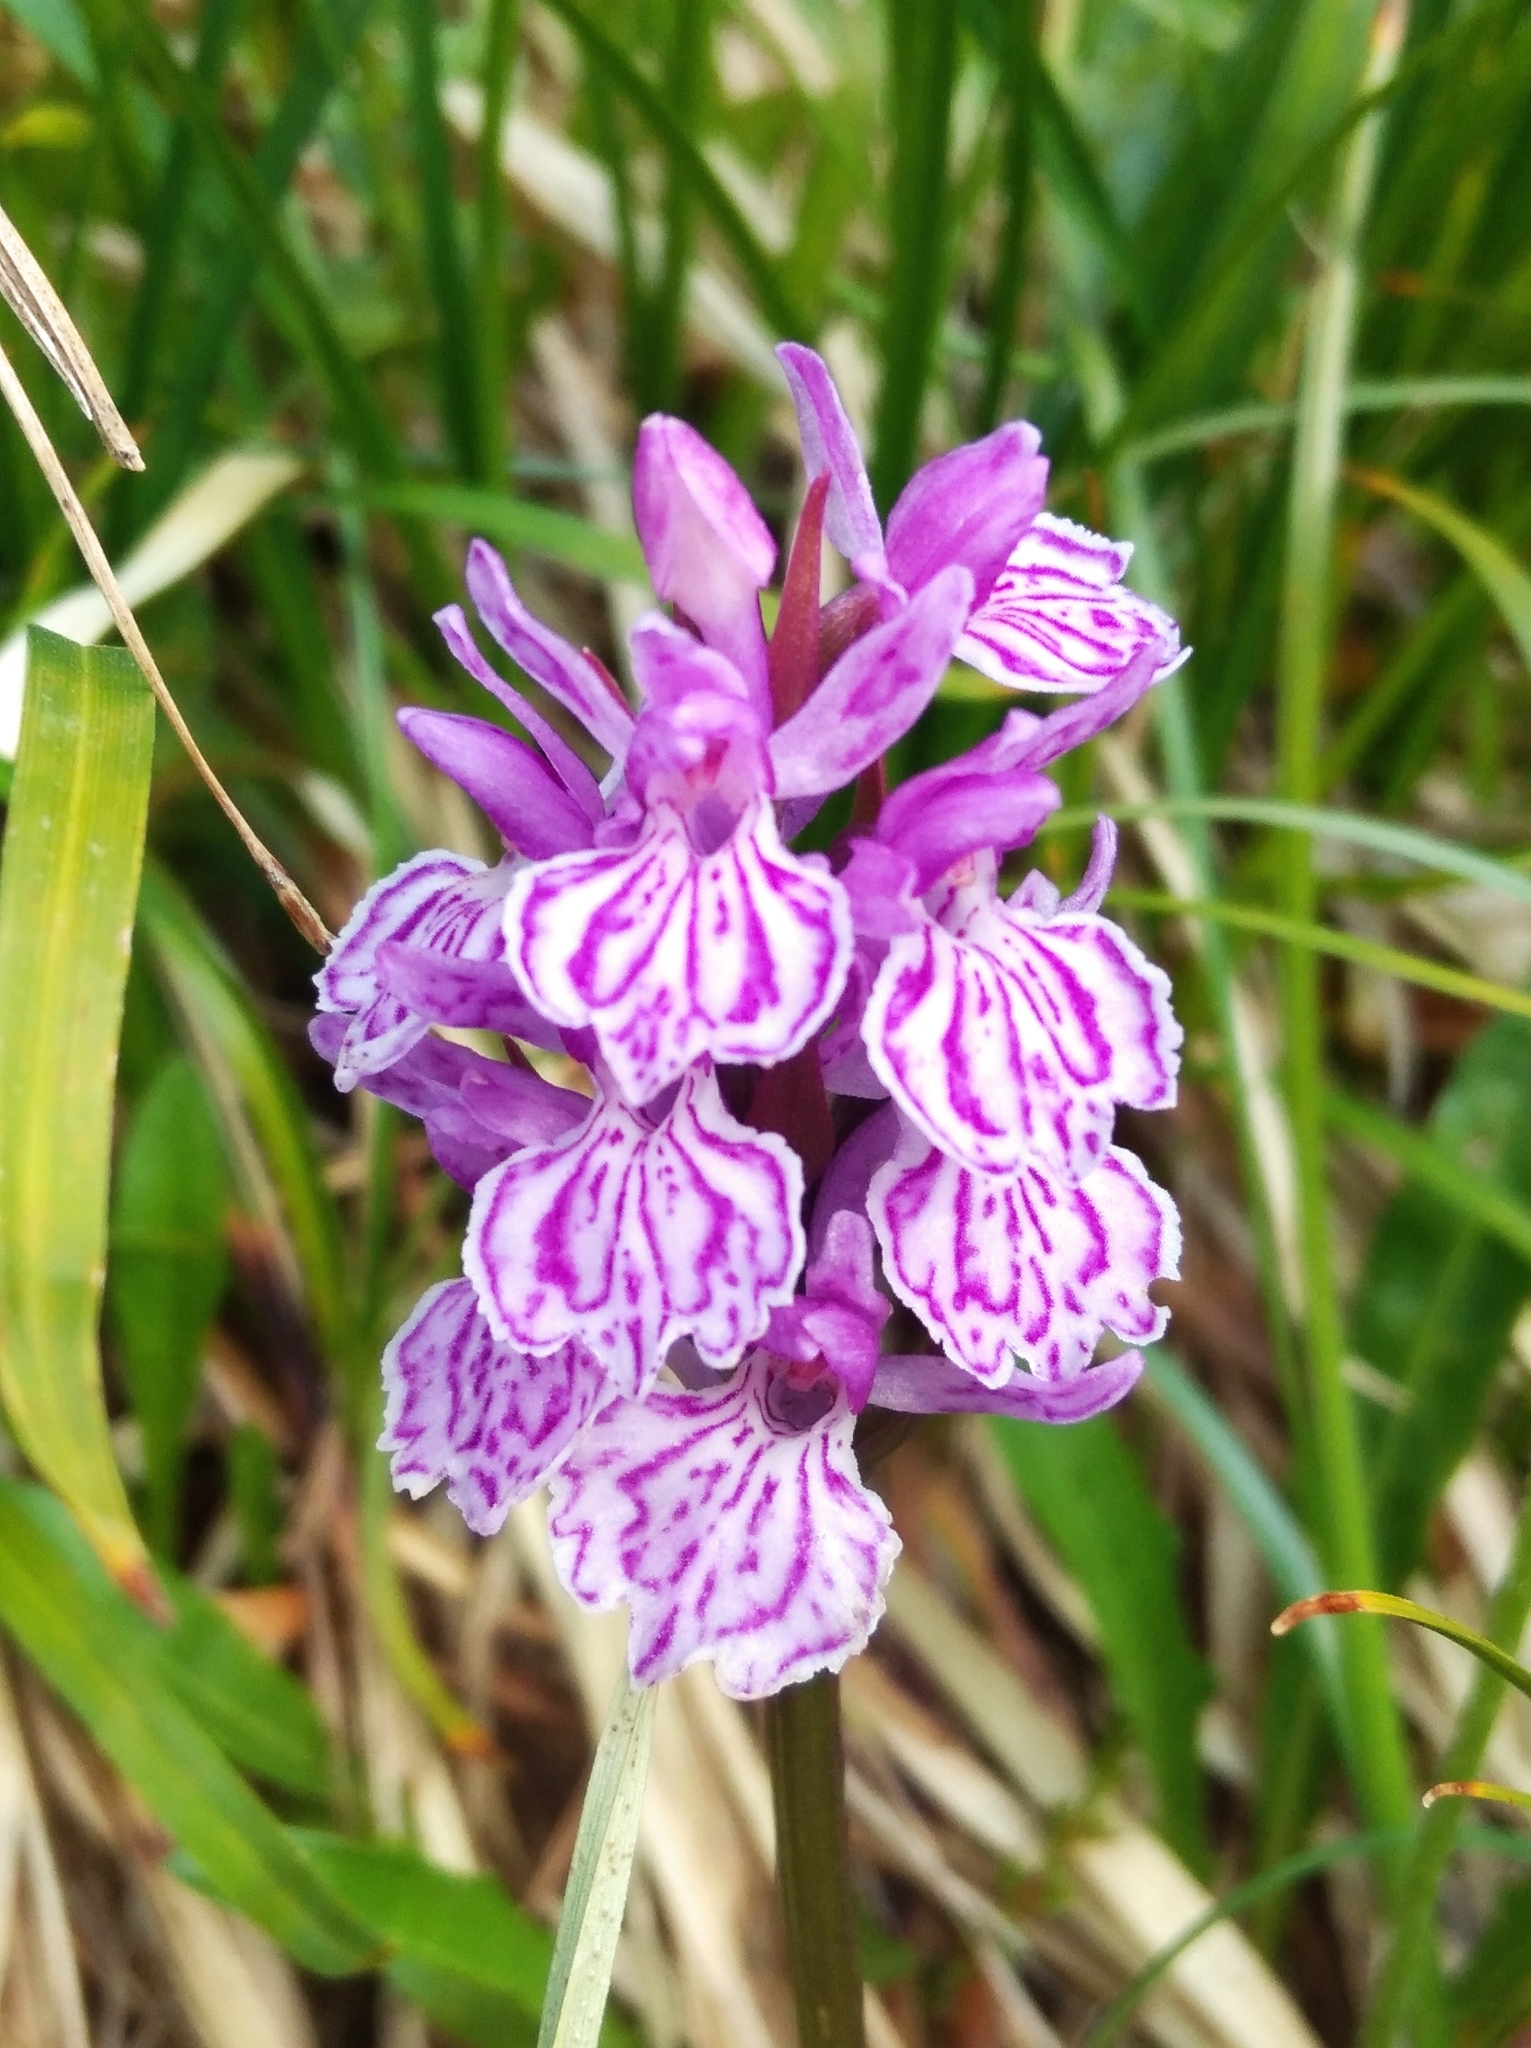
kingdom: Plantae
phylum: Tracheophyta
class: Liliopsida
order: Asparagales
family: Orchidaceae
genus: Dactylorhiza
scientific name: Dactylorhiza maculata
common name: Heath spotted-orchid
